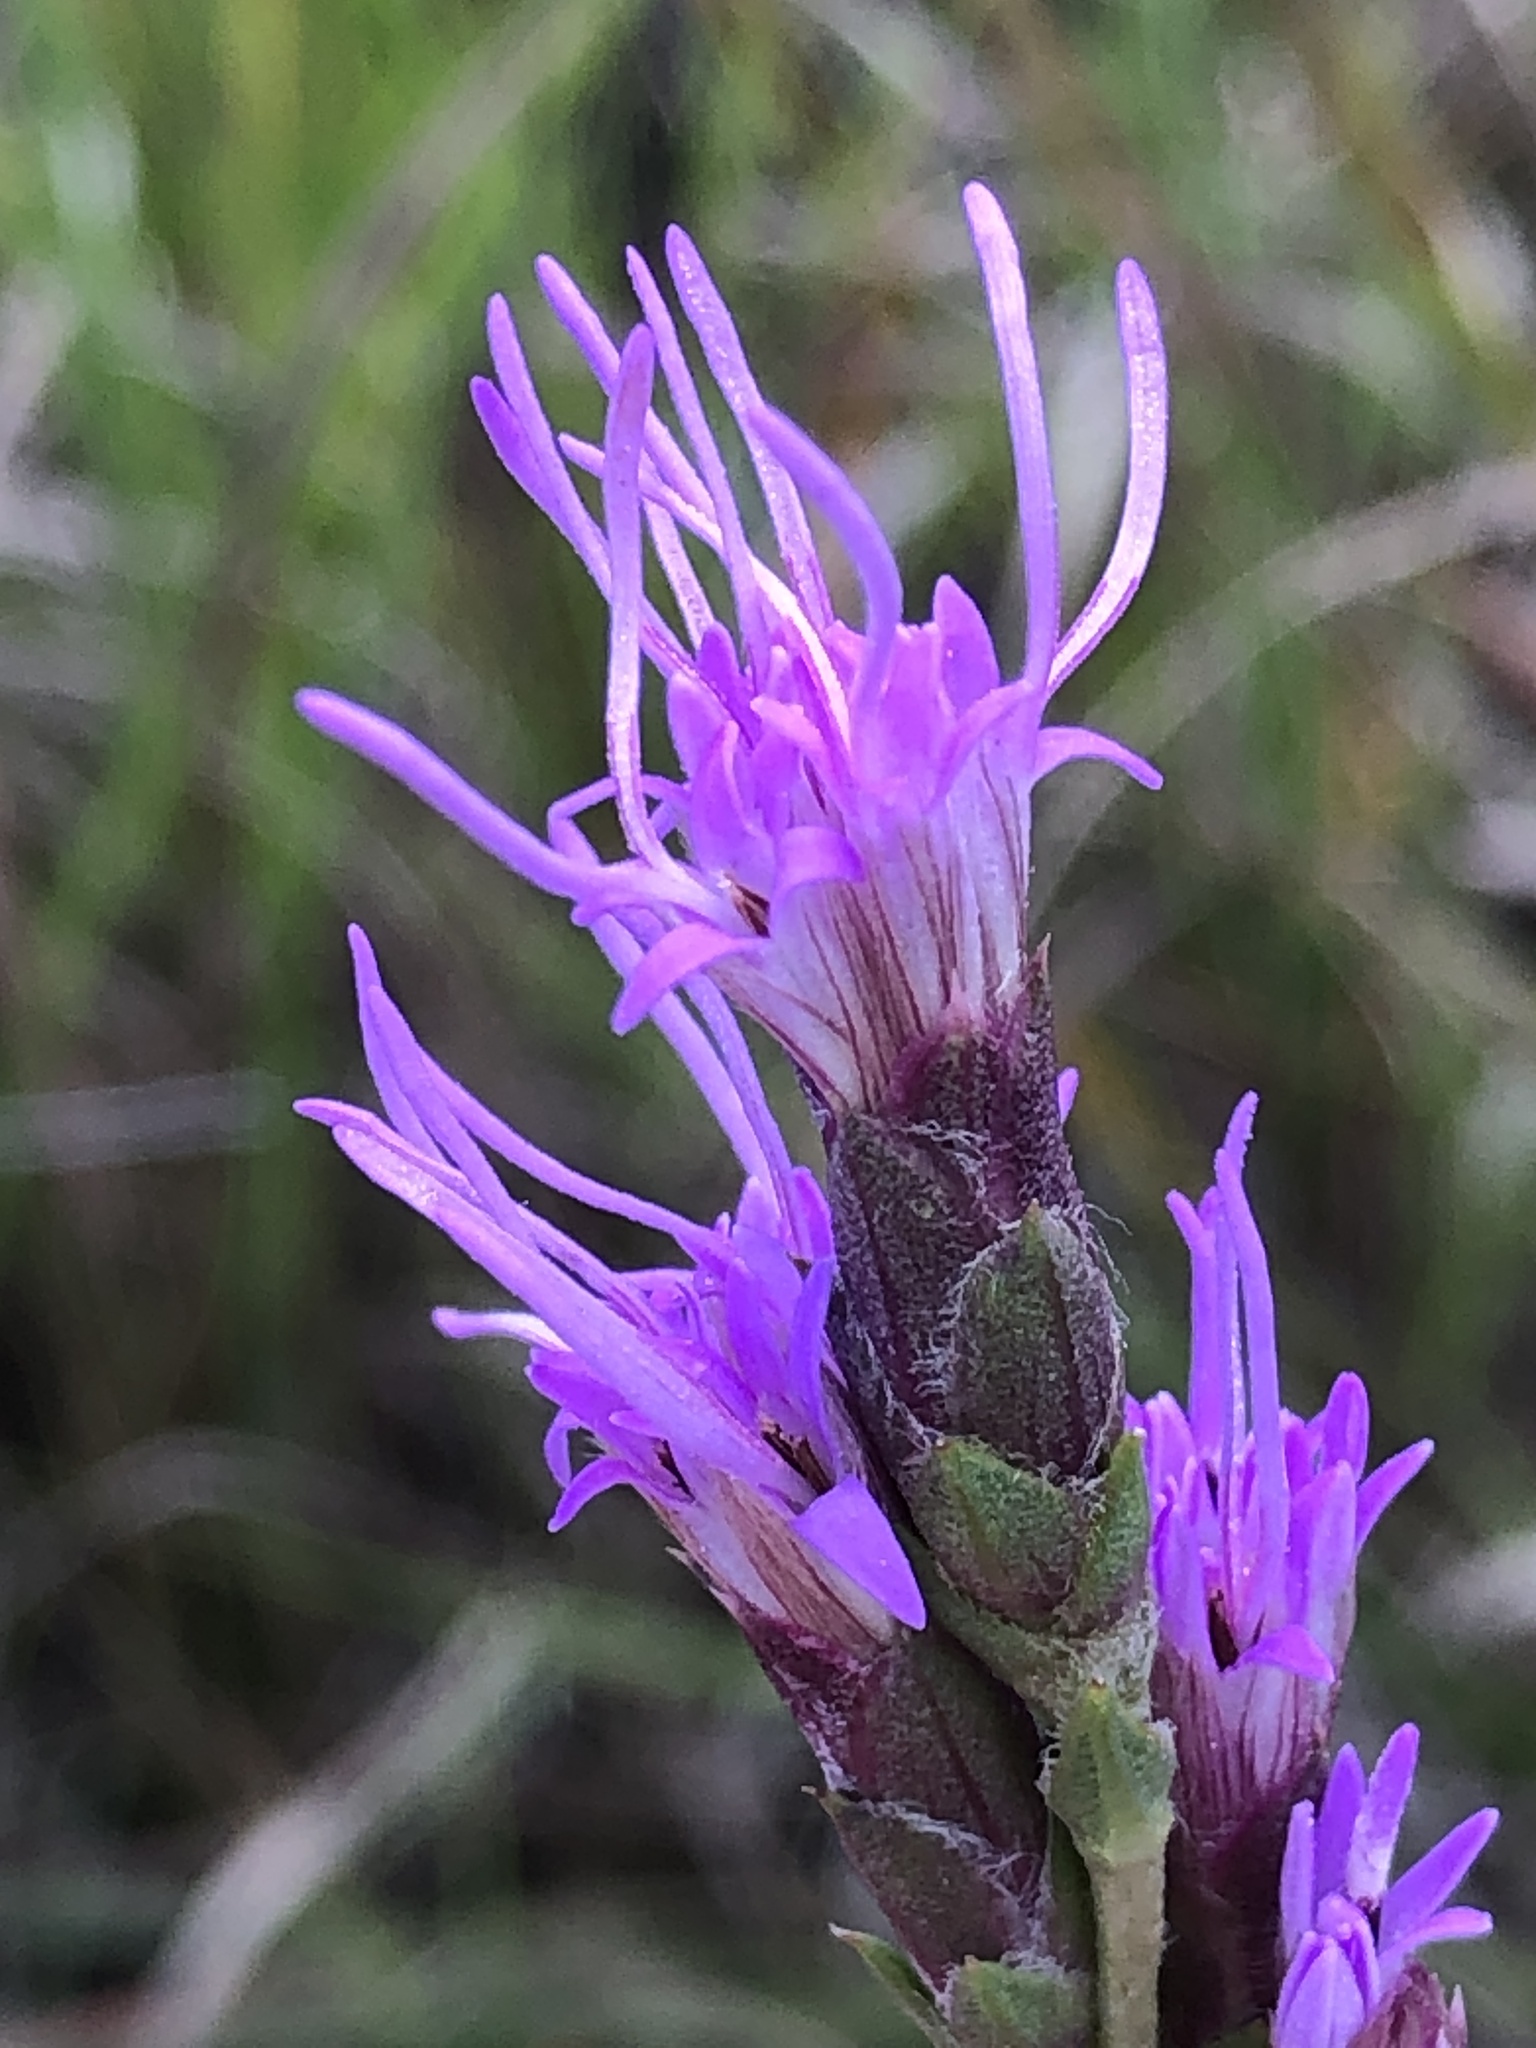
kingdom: Plantae
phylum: Tracheophyta
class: Magnoliopsida
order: Asterales
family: Asteraceae
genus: Liatris
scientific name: Liatris punctata
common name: Dotted gayfeather
